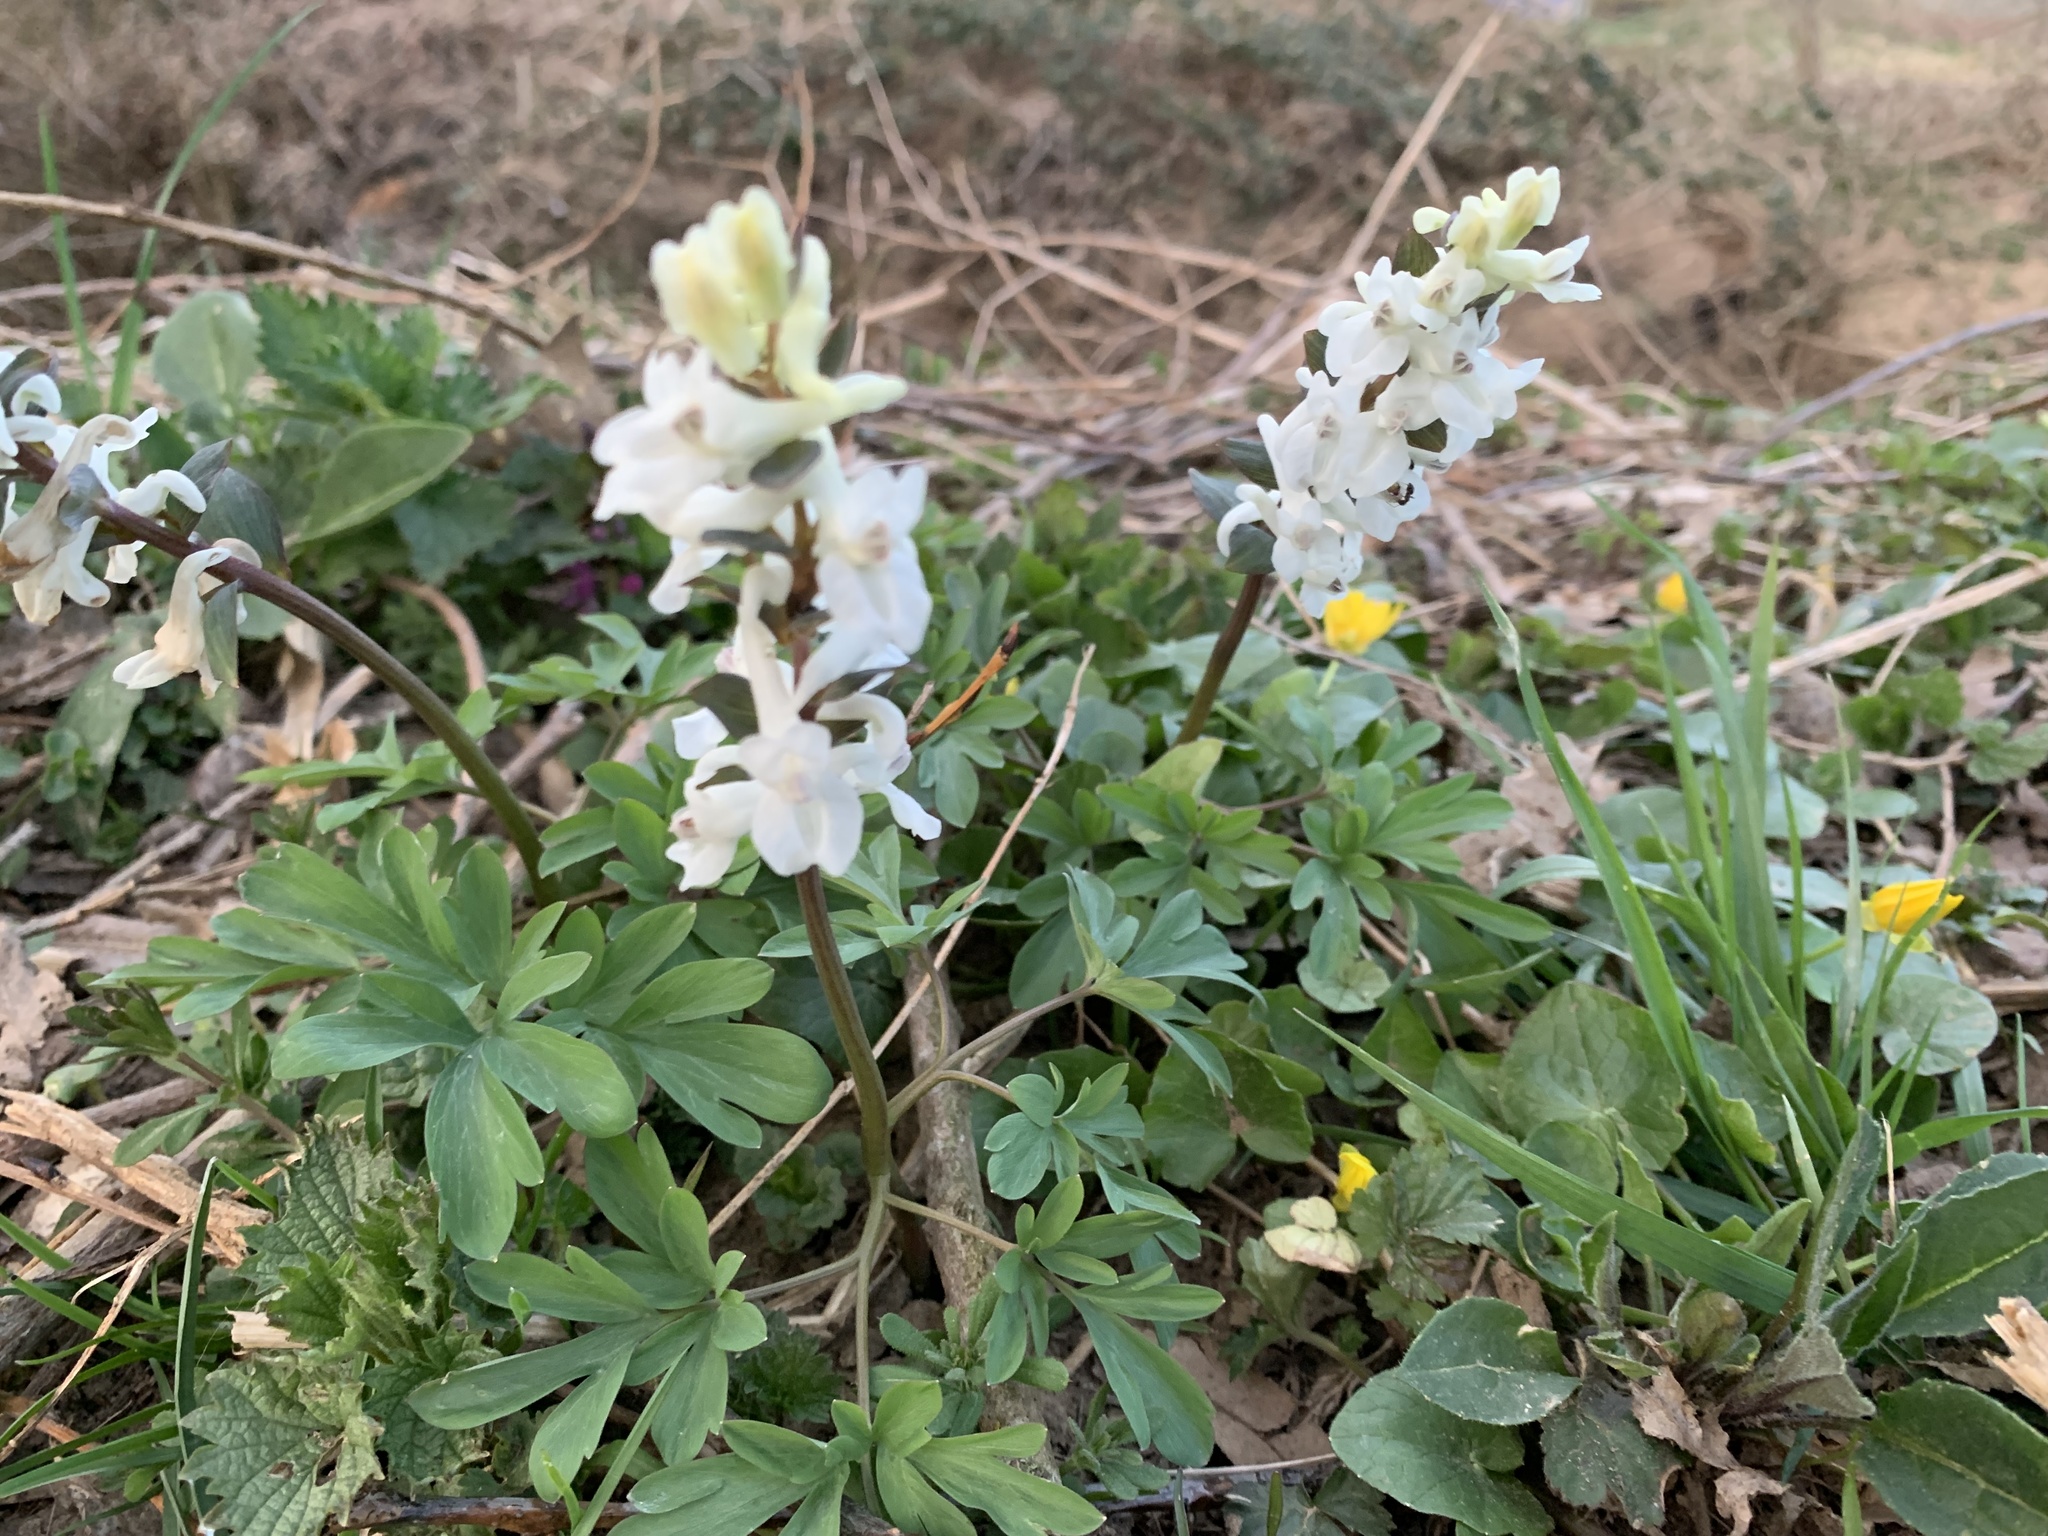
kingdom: Plantae
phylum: Tracheophyta
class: Magnoliopsida
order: Ranunculales
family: Papaveraceae
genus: Corydalis
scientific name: Corydalis cava
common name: Hollowroot
